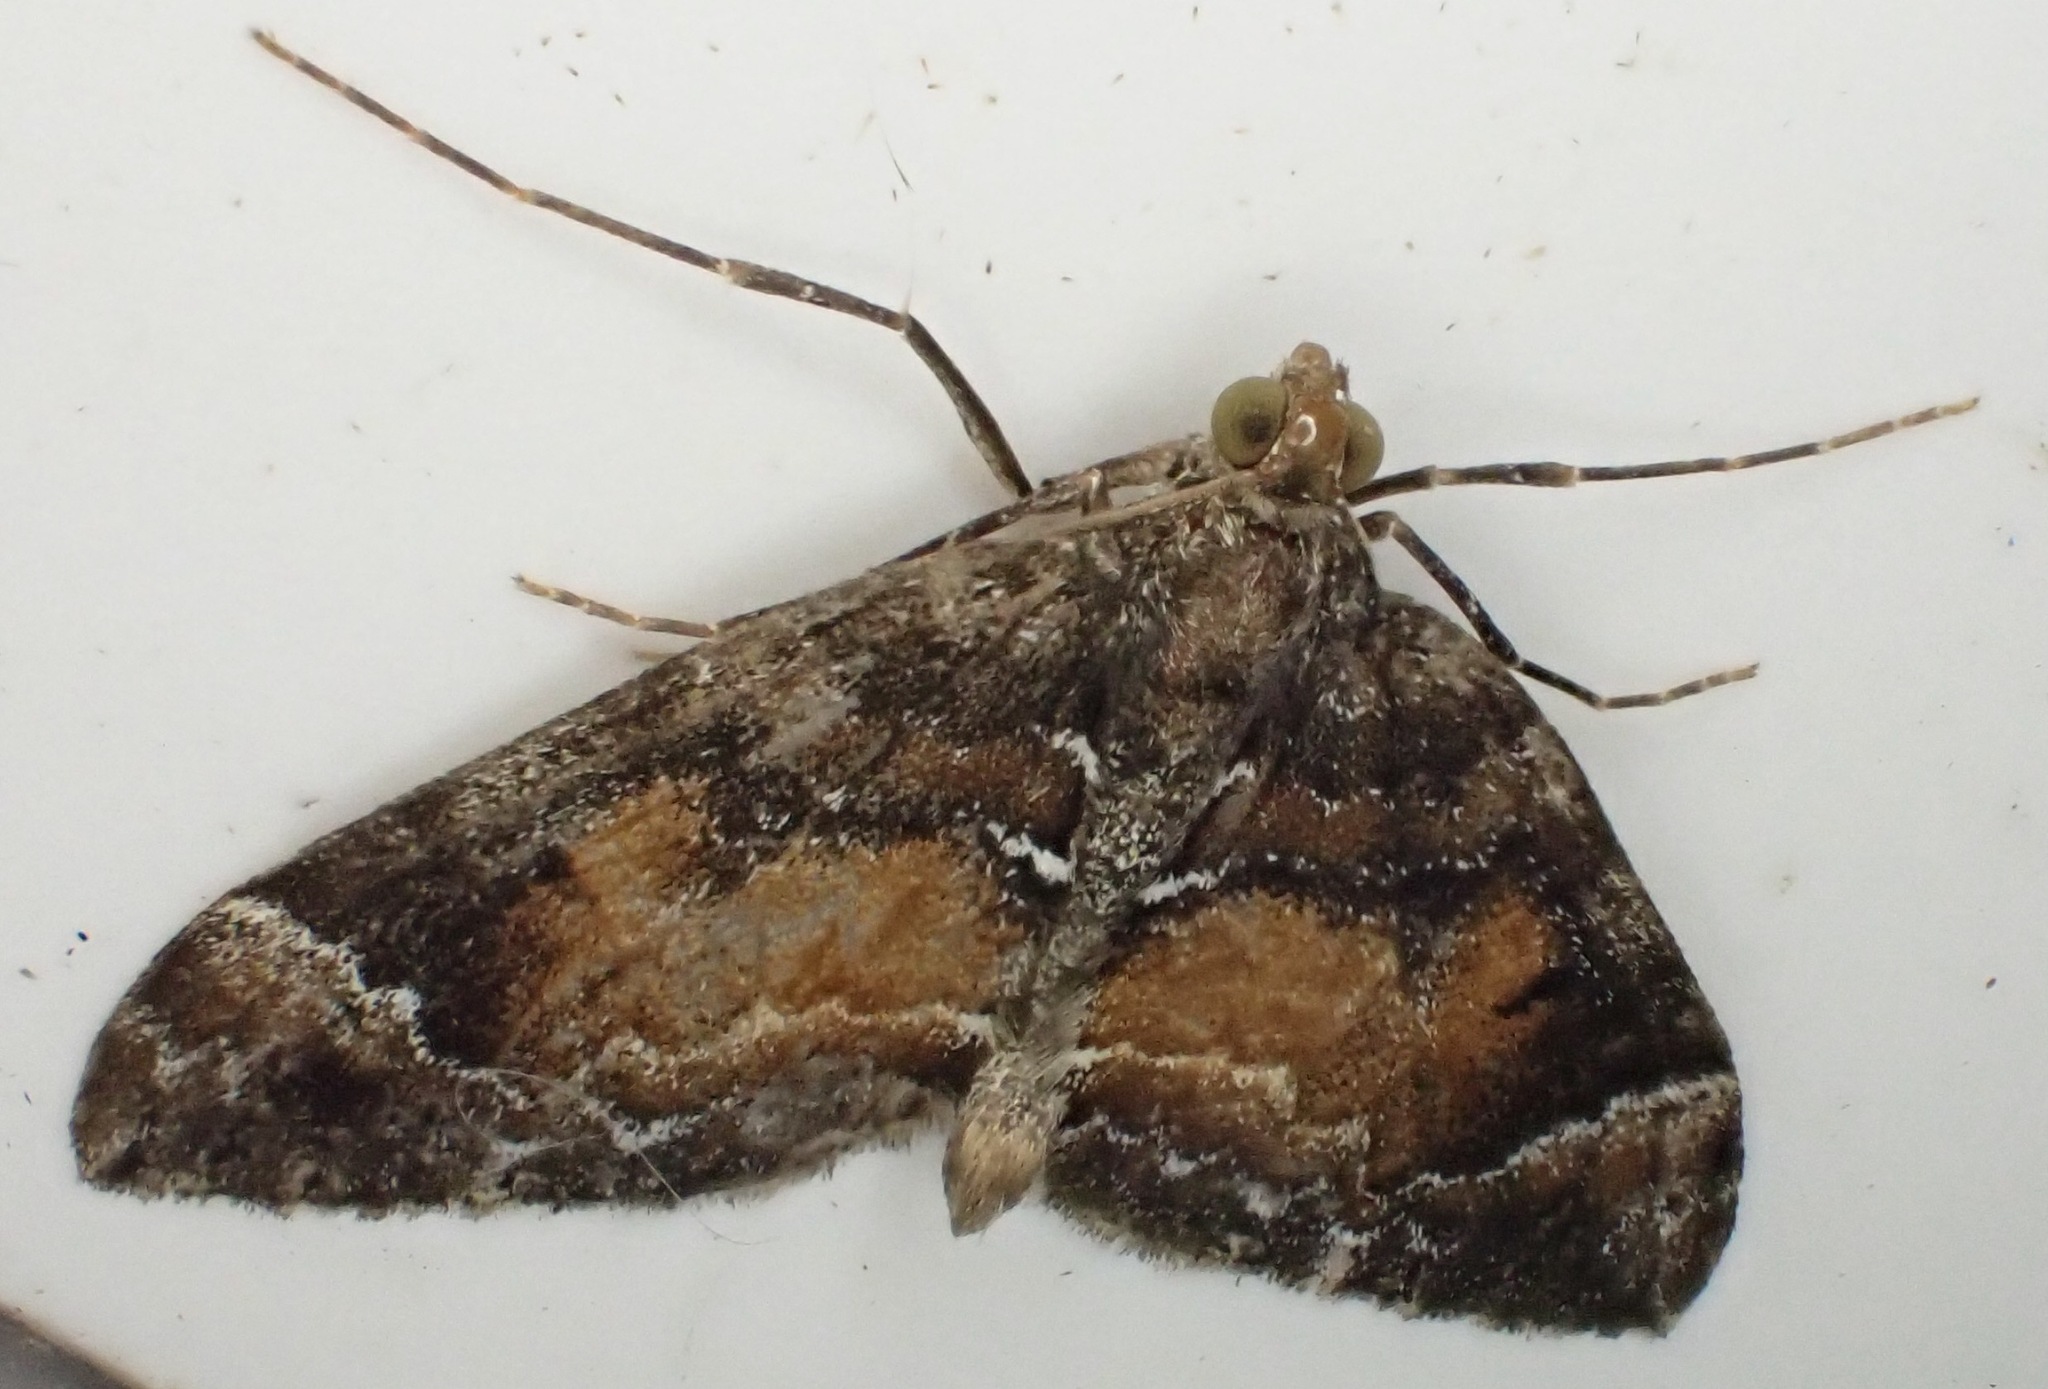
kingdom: Animalia
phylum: Arthropoda
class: Insecta
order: Lepidoptera
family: Geometridae
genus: Dysstroma
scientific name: Dysstroma truncata
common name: Common marbled carpet
